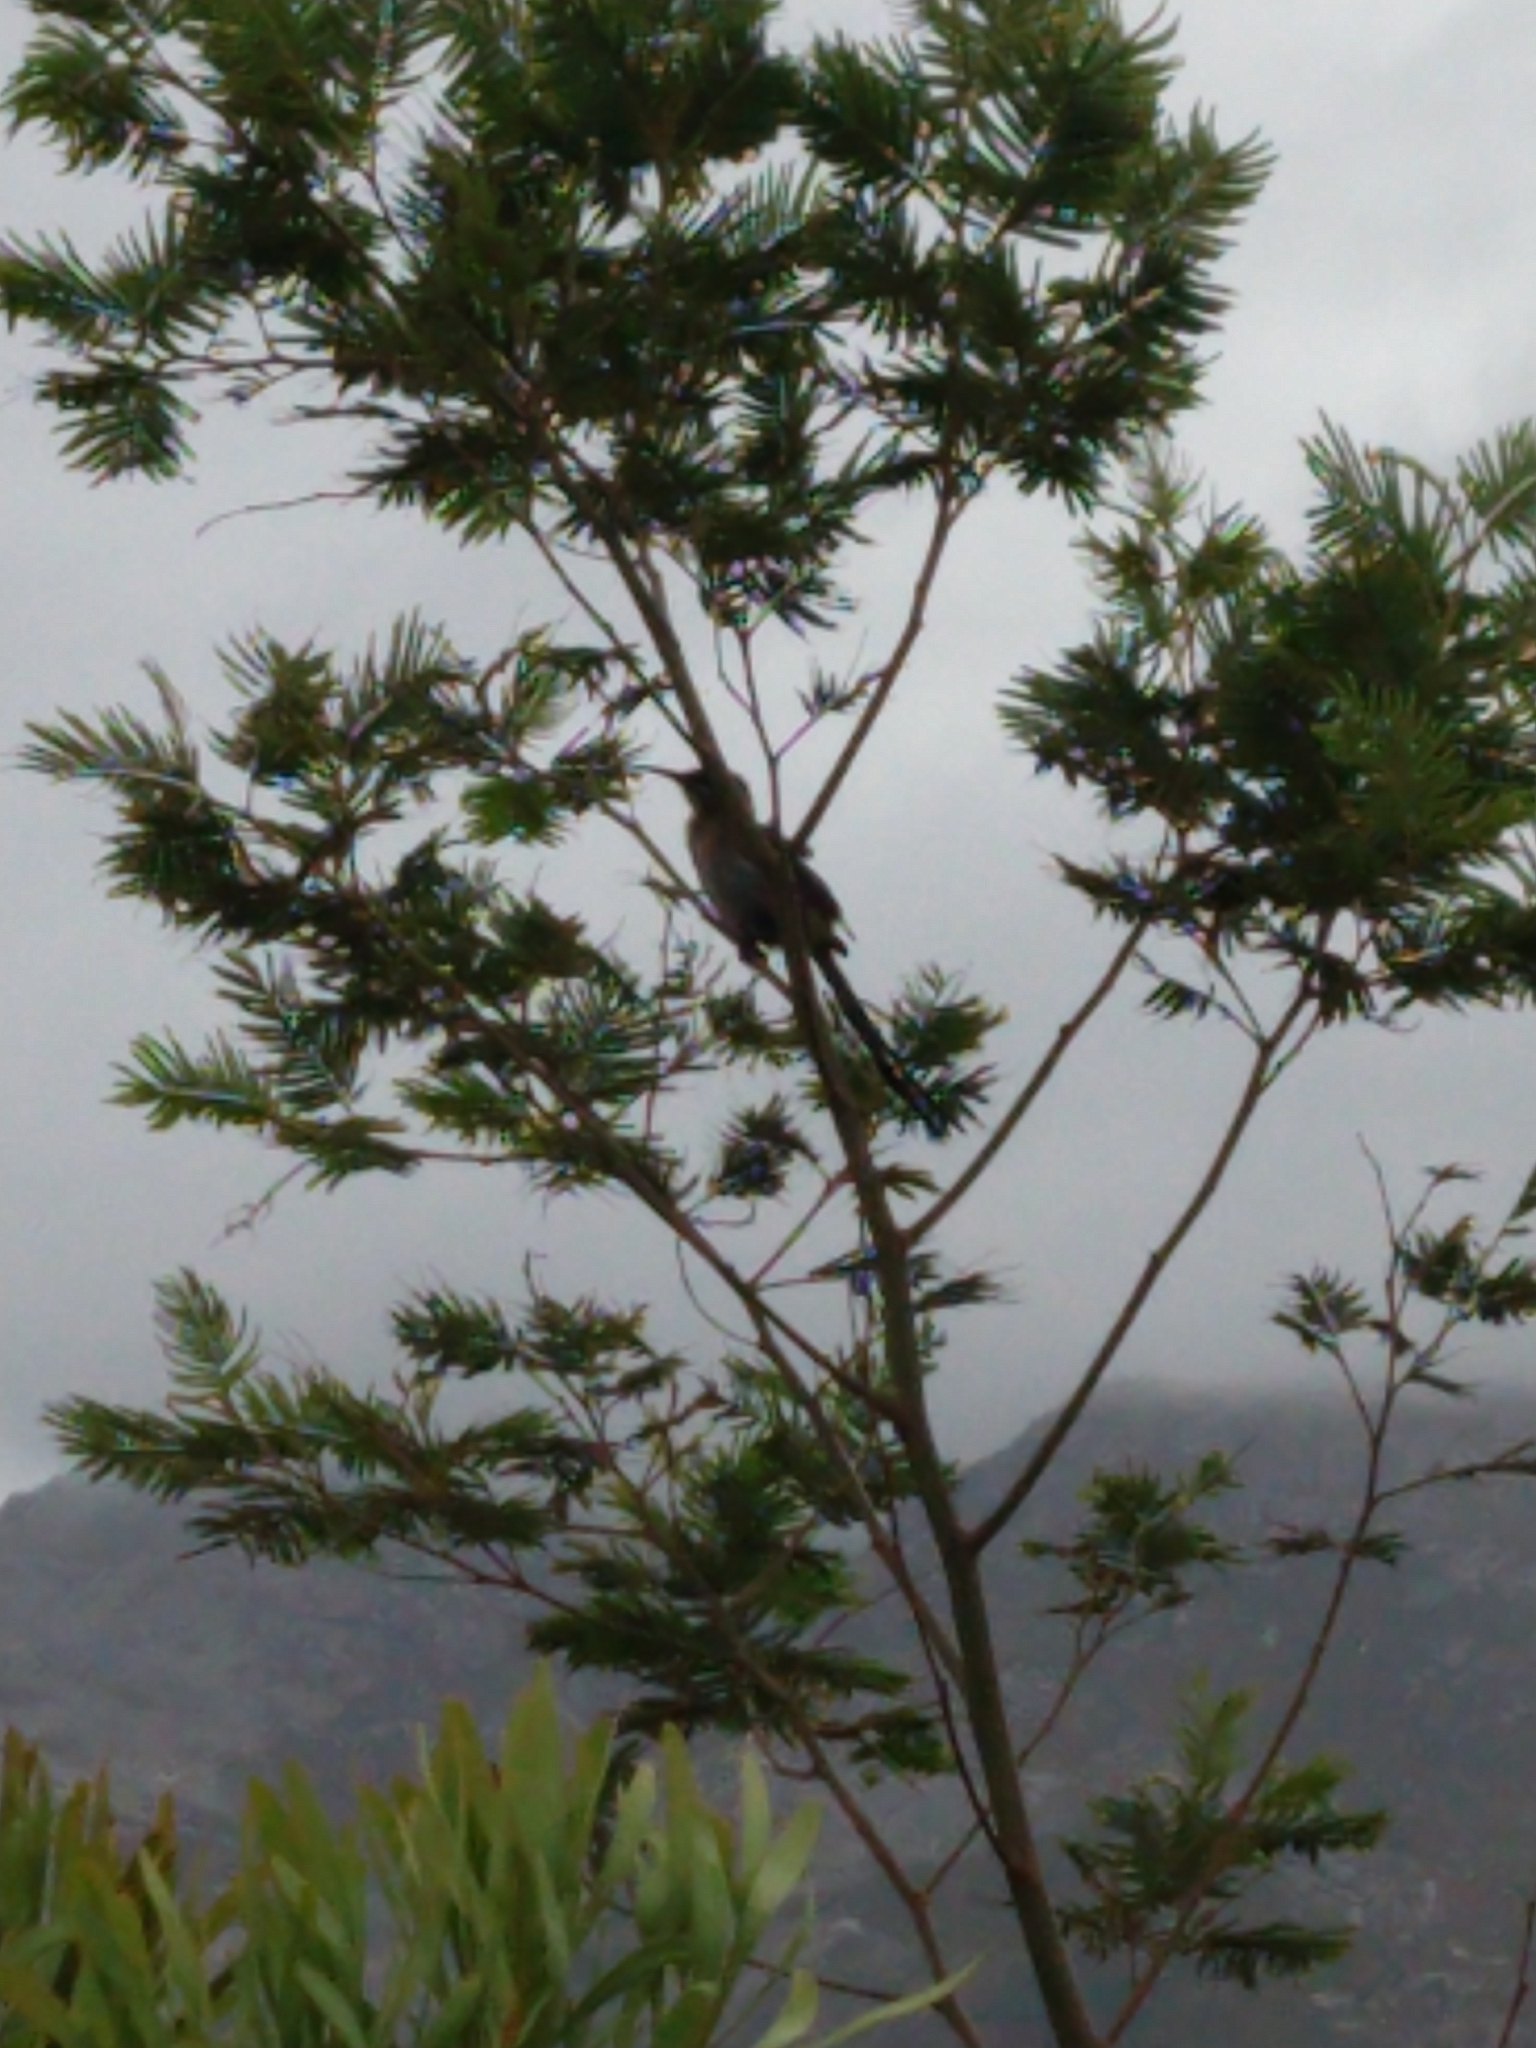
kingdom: Animalia
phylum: Chordata
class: Aves
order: Passeriformes
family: Promeropidae
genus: Promerops
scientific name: Promerops cafer
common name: Cape sugarbird
